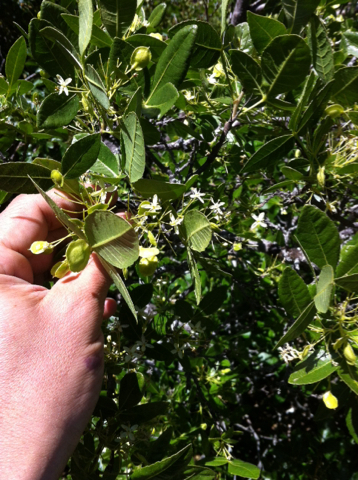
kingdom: Plantae
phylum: Tracheophyta
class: Magnoliopsida
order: Sapindales
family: Rutaceae
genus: Ptelea
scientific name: Ptelea crenulata
